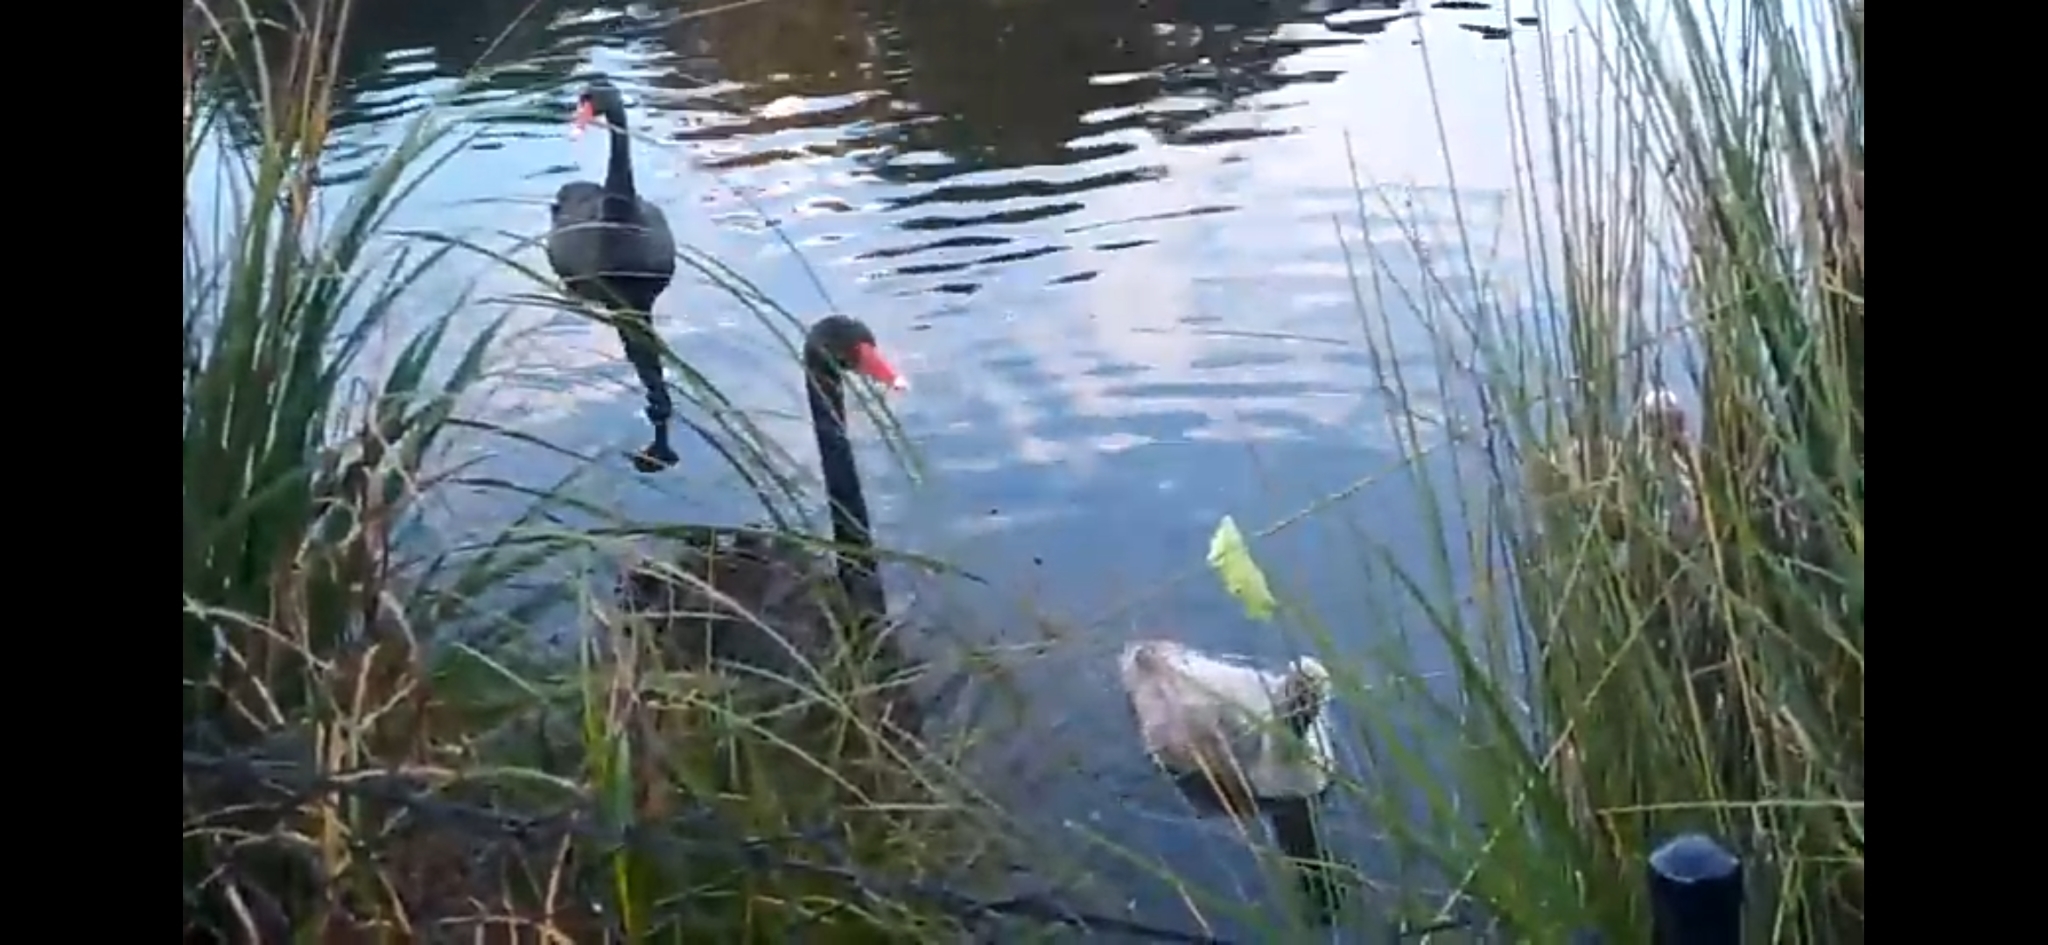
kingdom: Animalia
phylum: Chordata
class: Aves
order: Anseriformes
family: Anatidae
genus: Cygnus
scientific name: Cygnus atratus
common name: Black swan
